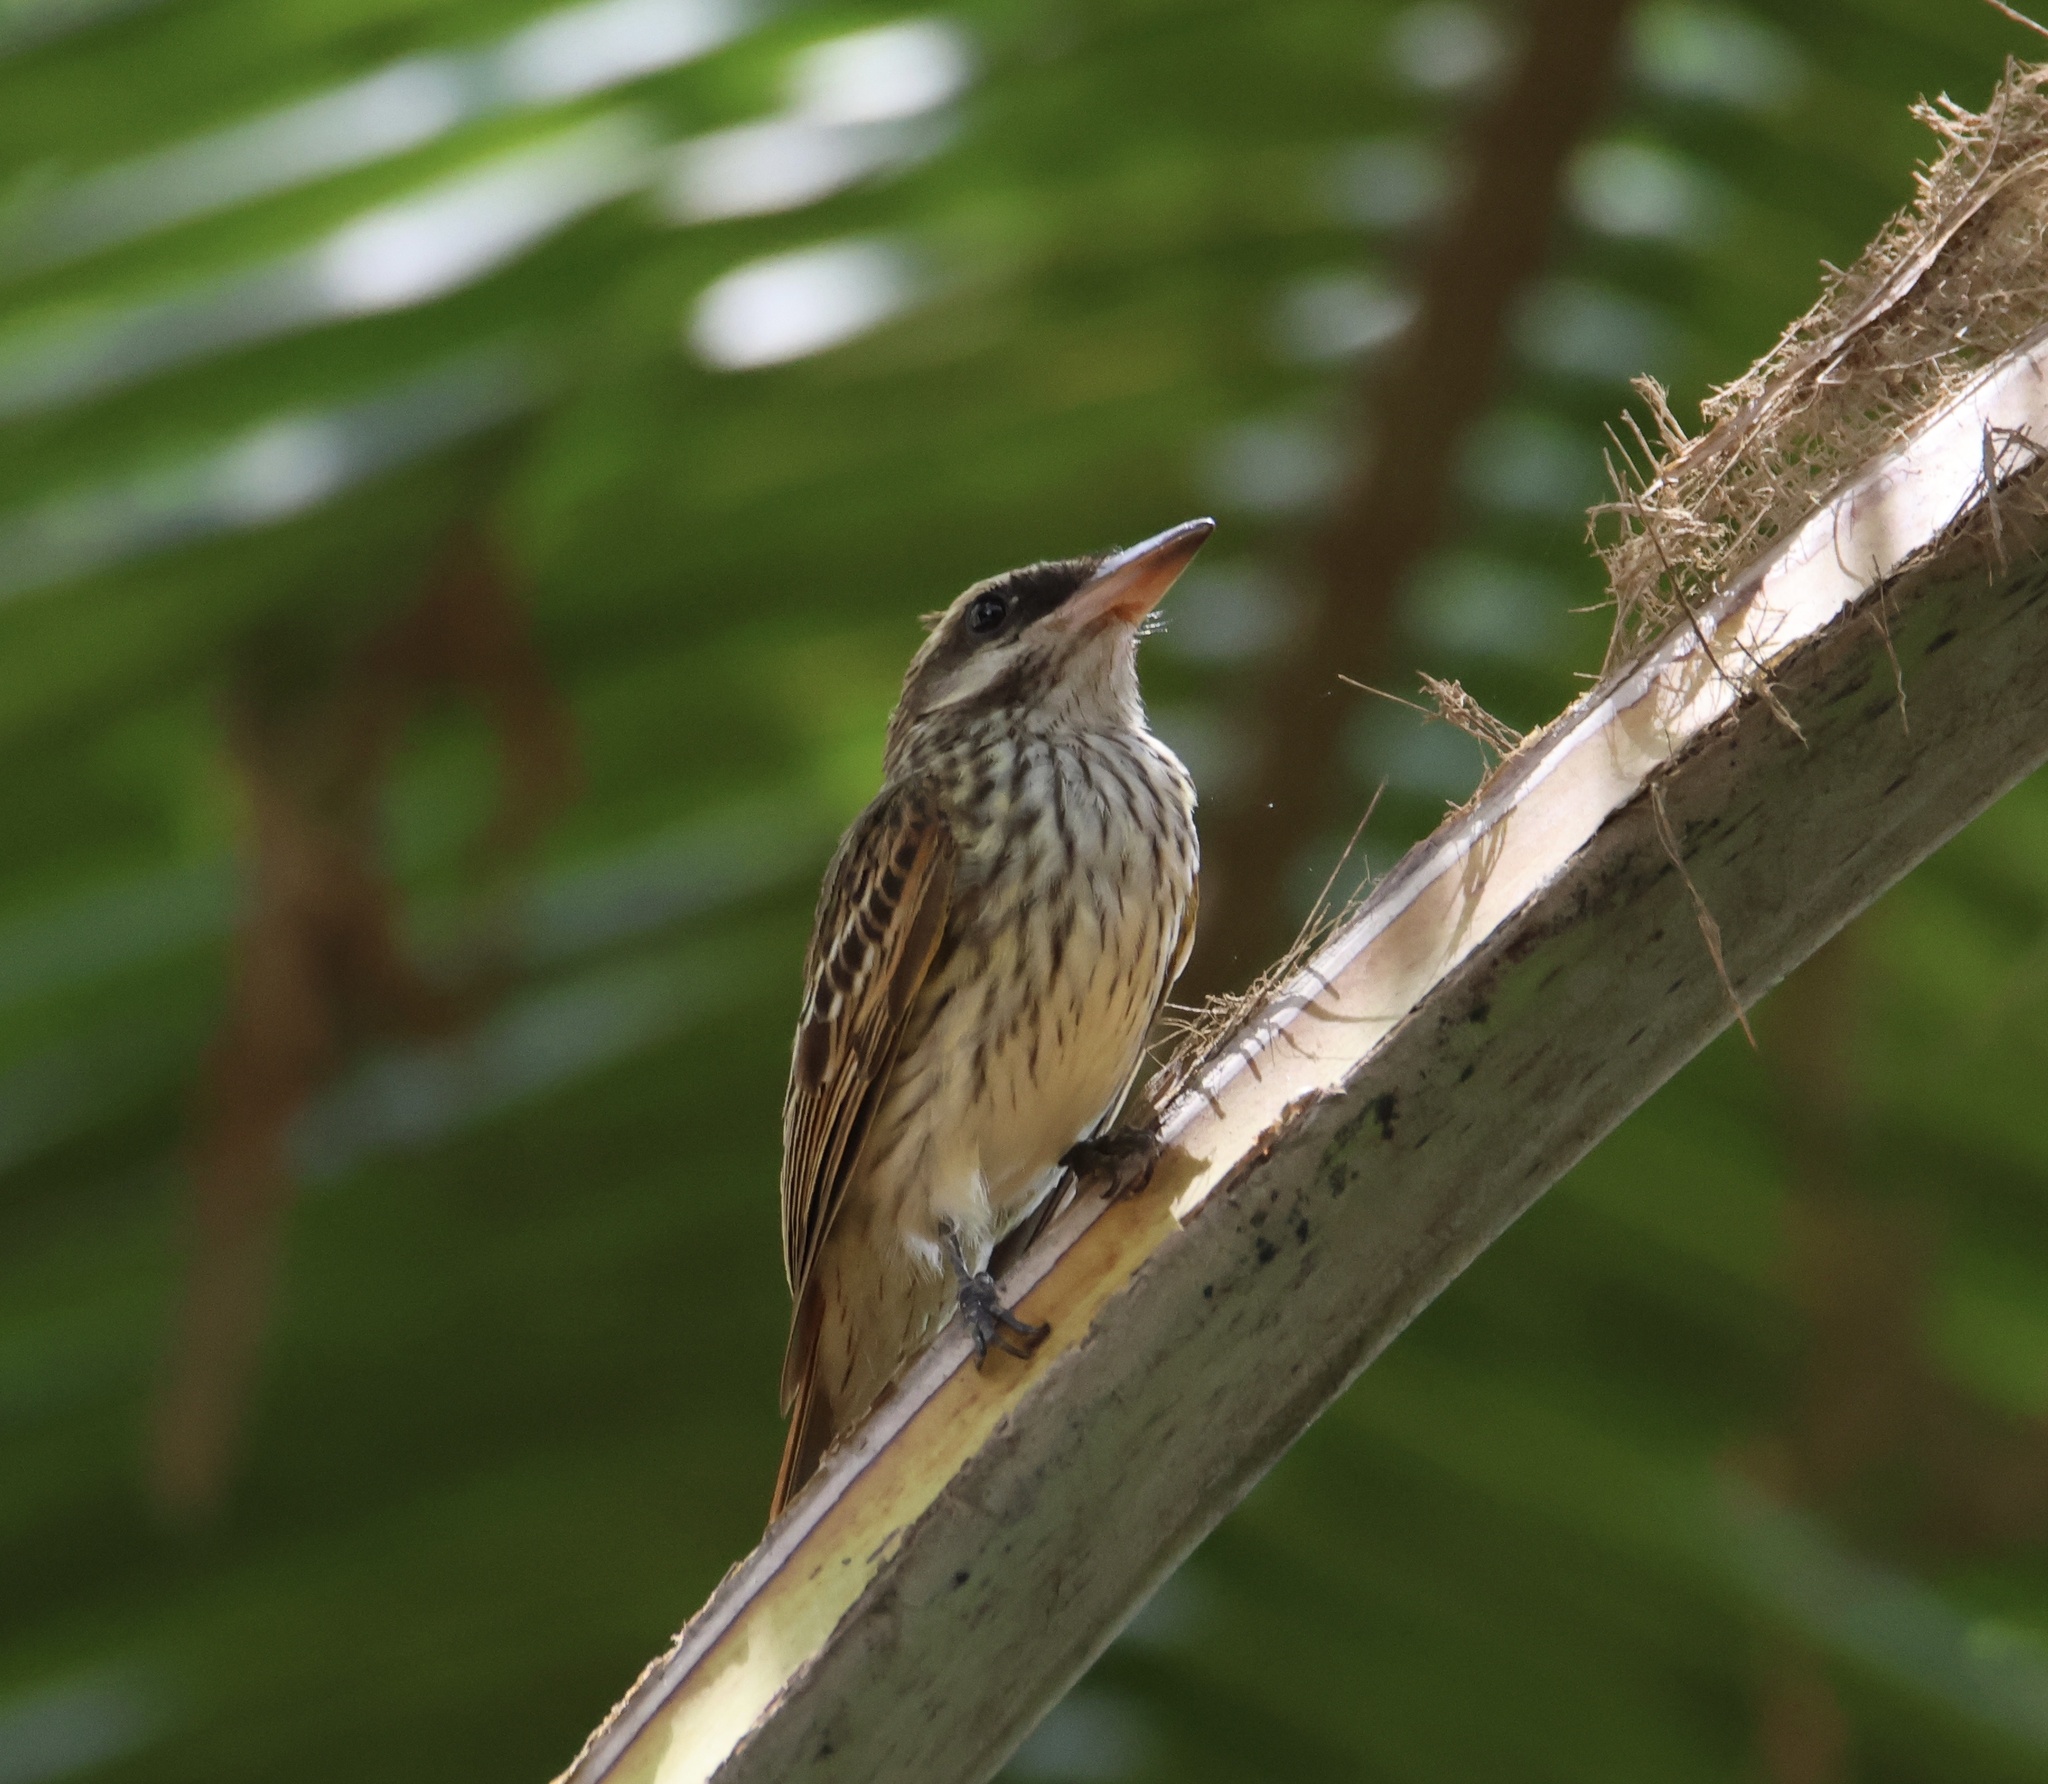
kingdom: Animalia
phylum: Chordata
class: Aves
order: Passeriformes
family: Tyrannidae
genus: Myiodynastes
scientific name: Myiodynastes maculatus
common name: Streaked flycatcher
